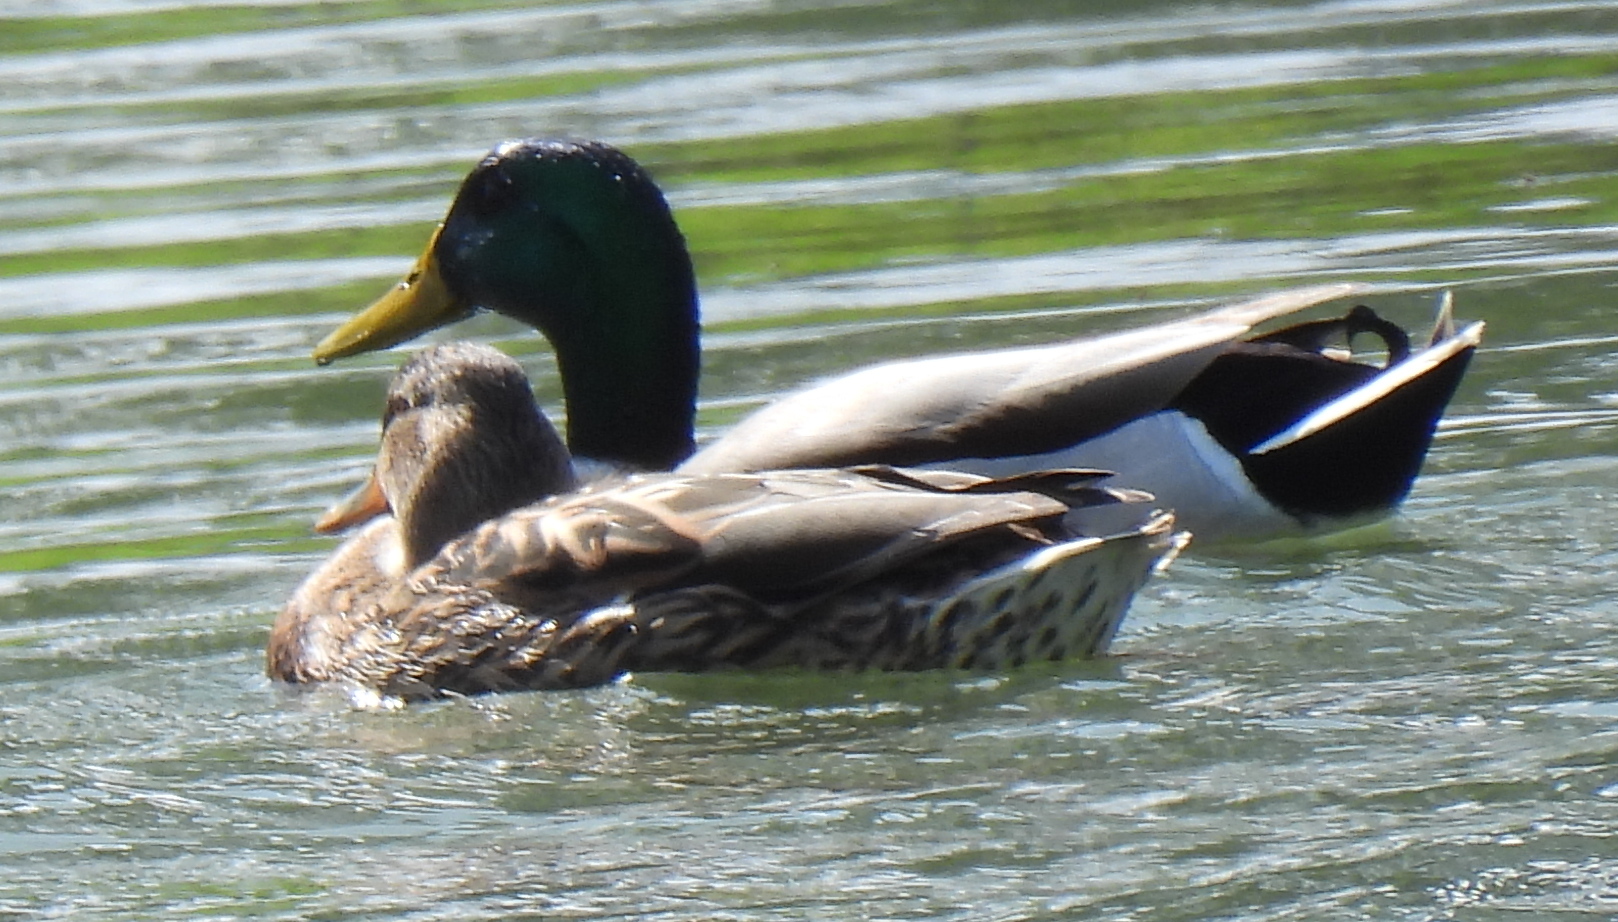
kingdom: Animalia
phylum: Chordata
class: Aves
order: Anseriformes
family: Anatidae
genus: Anas
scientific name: Anas platyrhynchos
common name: Mallard
